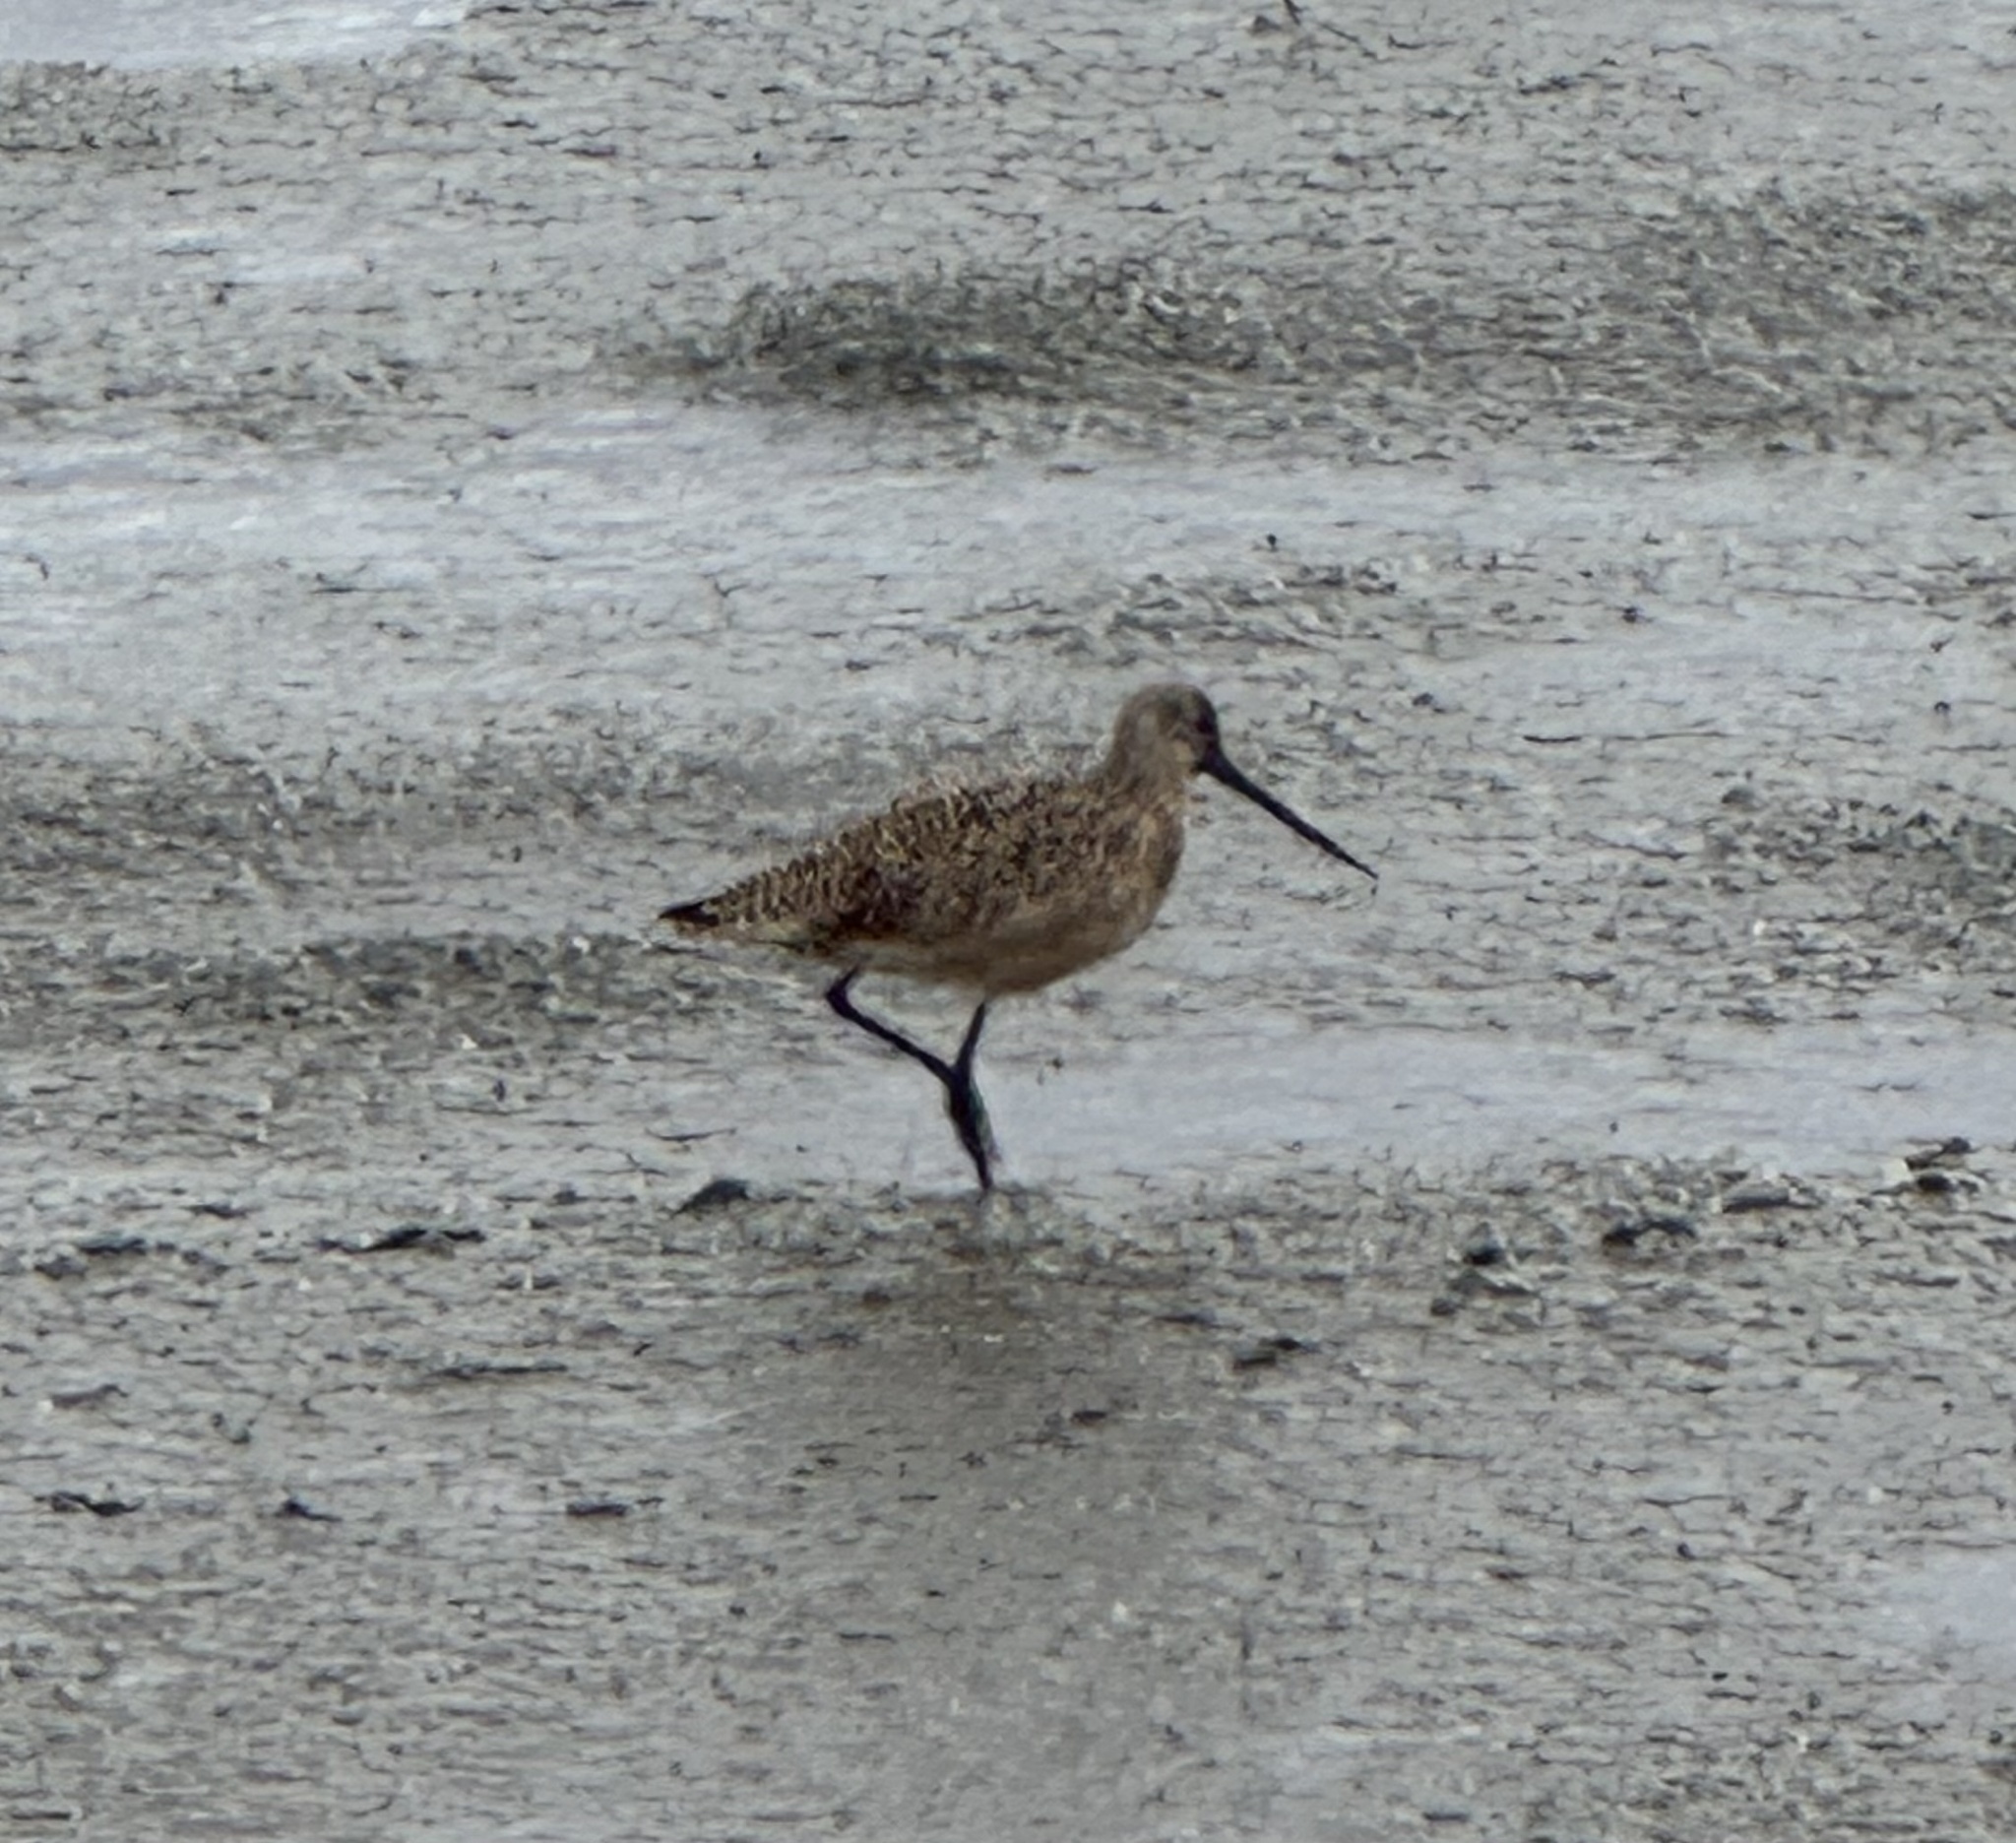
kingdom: Animalia
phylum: Chordata
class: Aves
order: Charadriiformes
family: Scolopacidae
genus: Limosa
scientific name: Limosa fedoa
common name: Marbled godwit
